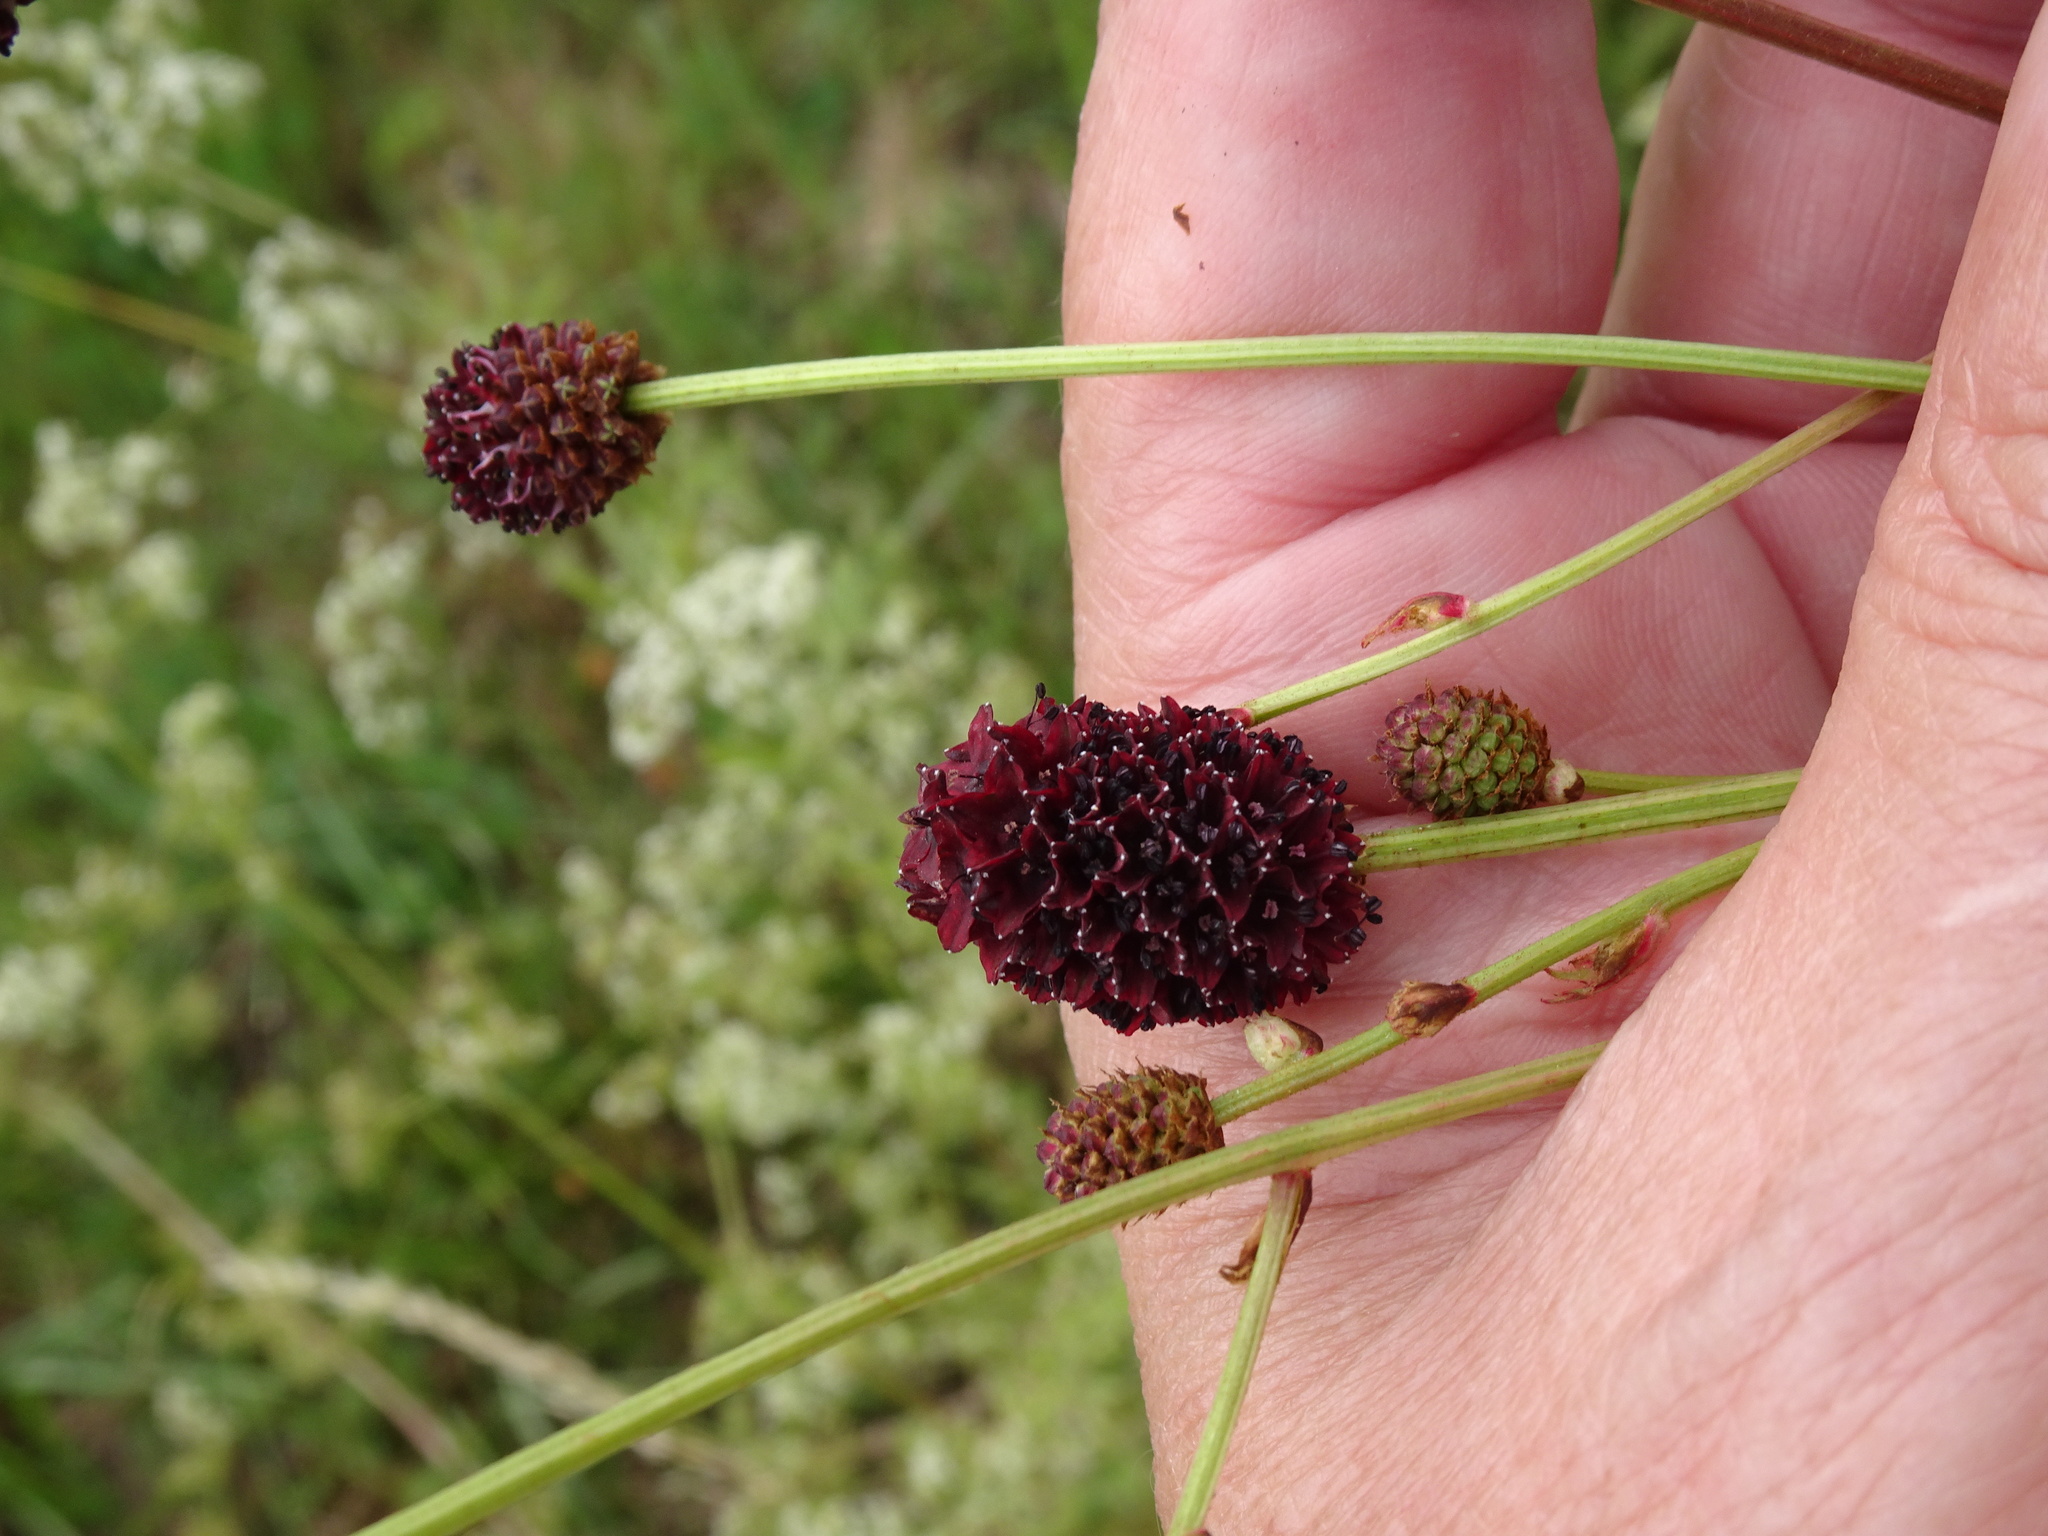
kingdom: Plantae
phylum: Tracheophyta
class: Magnoliopsida
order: Rosales
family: Rosaceae
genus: Sanguisorba
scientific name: Sanguisorba officinalis
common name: Great burnet
